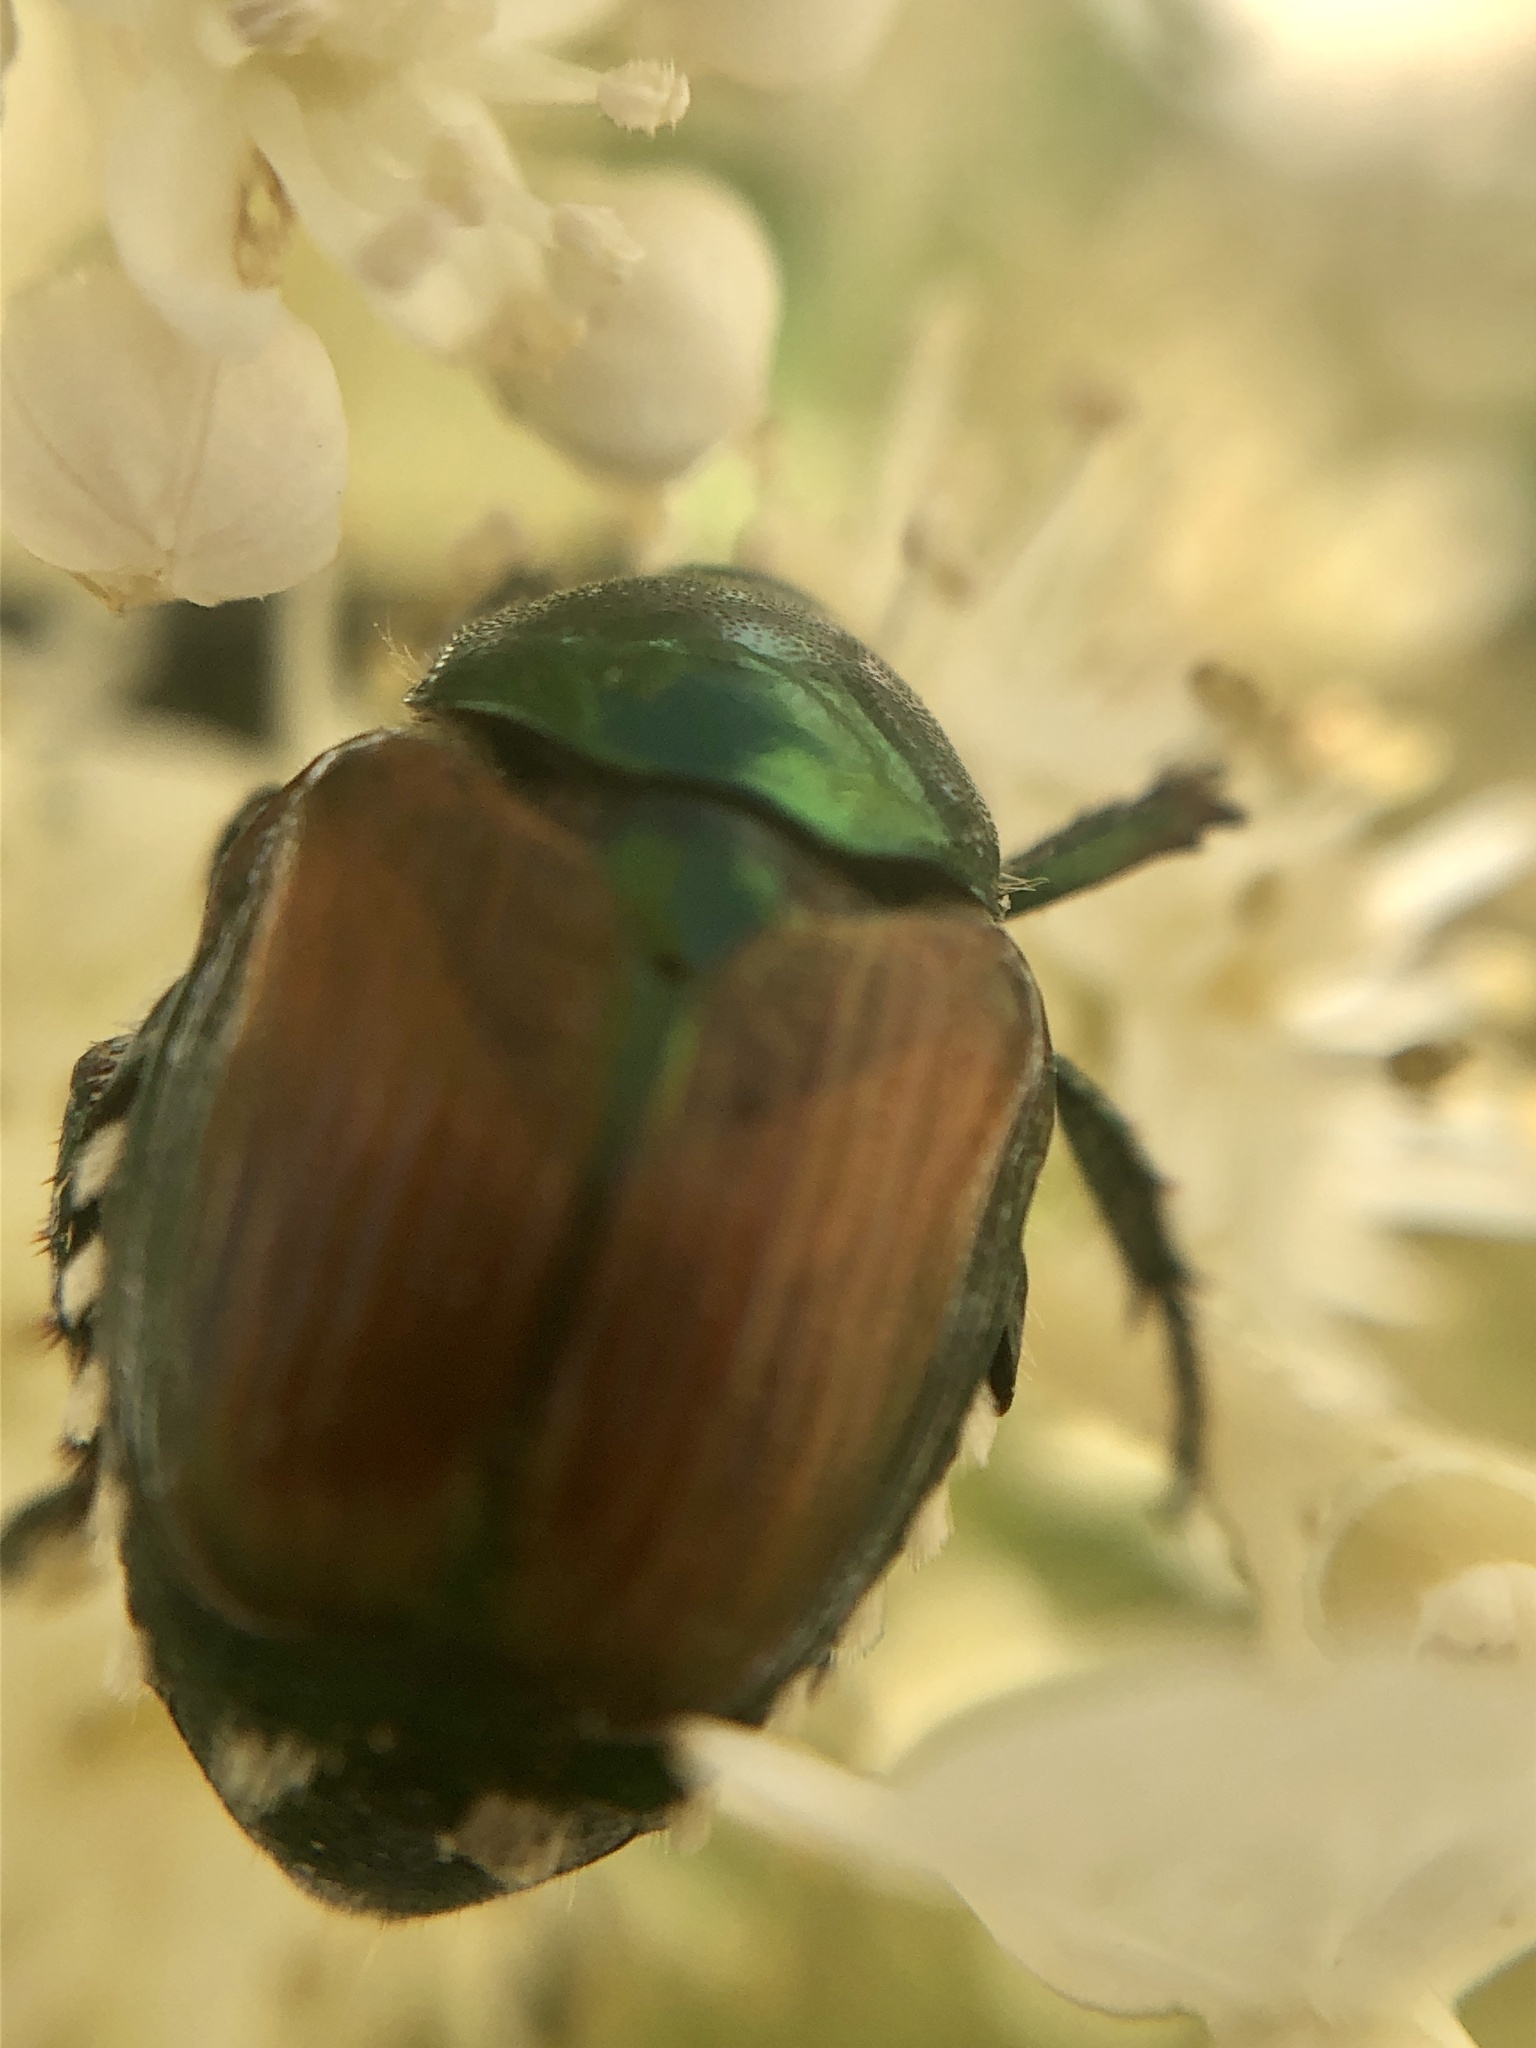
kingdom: Animalia
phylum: Arthropoda
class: Insecta
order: Coleoptera
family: Scarabaeidae
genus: Popillia
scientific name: Popillia japonica
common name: Japanese beetle
